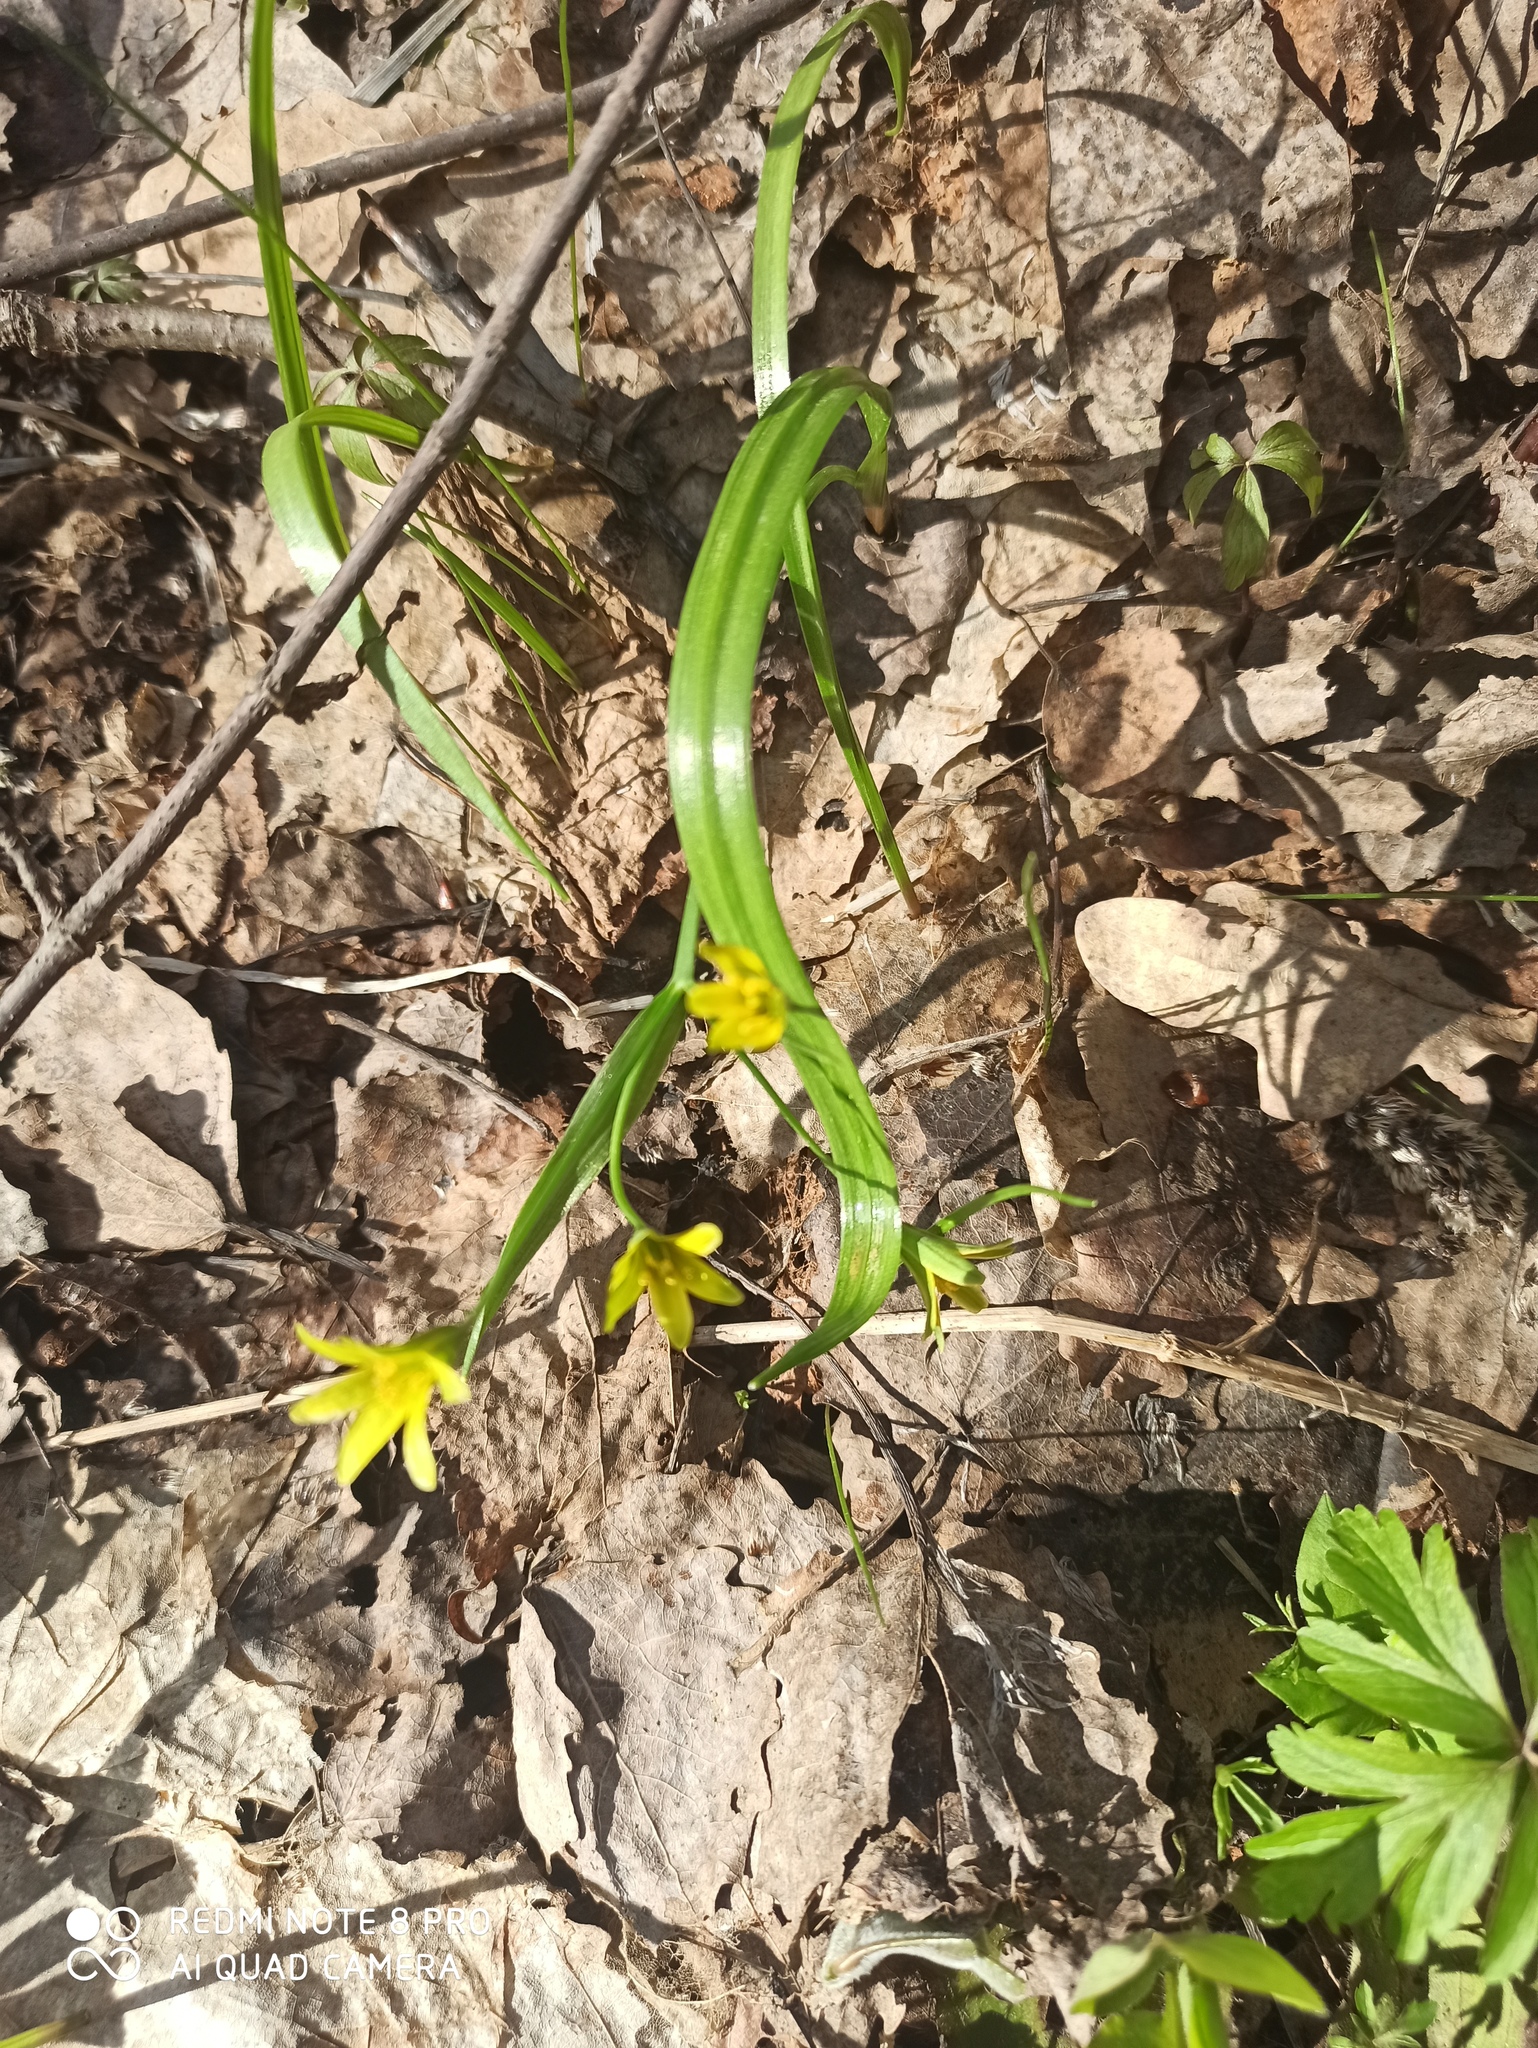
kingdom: Plantae
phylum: Tracheophyta
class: Liliopsida
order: Liliales
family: Liliaceae
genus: Gagea
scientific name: Gagea lutea
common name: Yellow star-of-bethlehem
